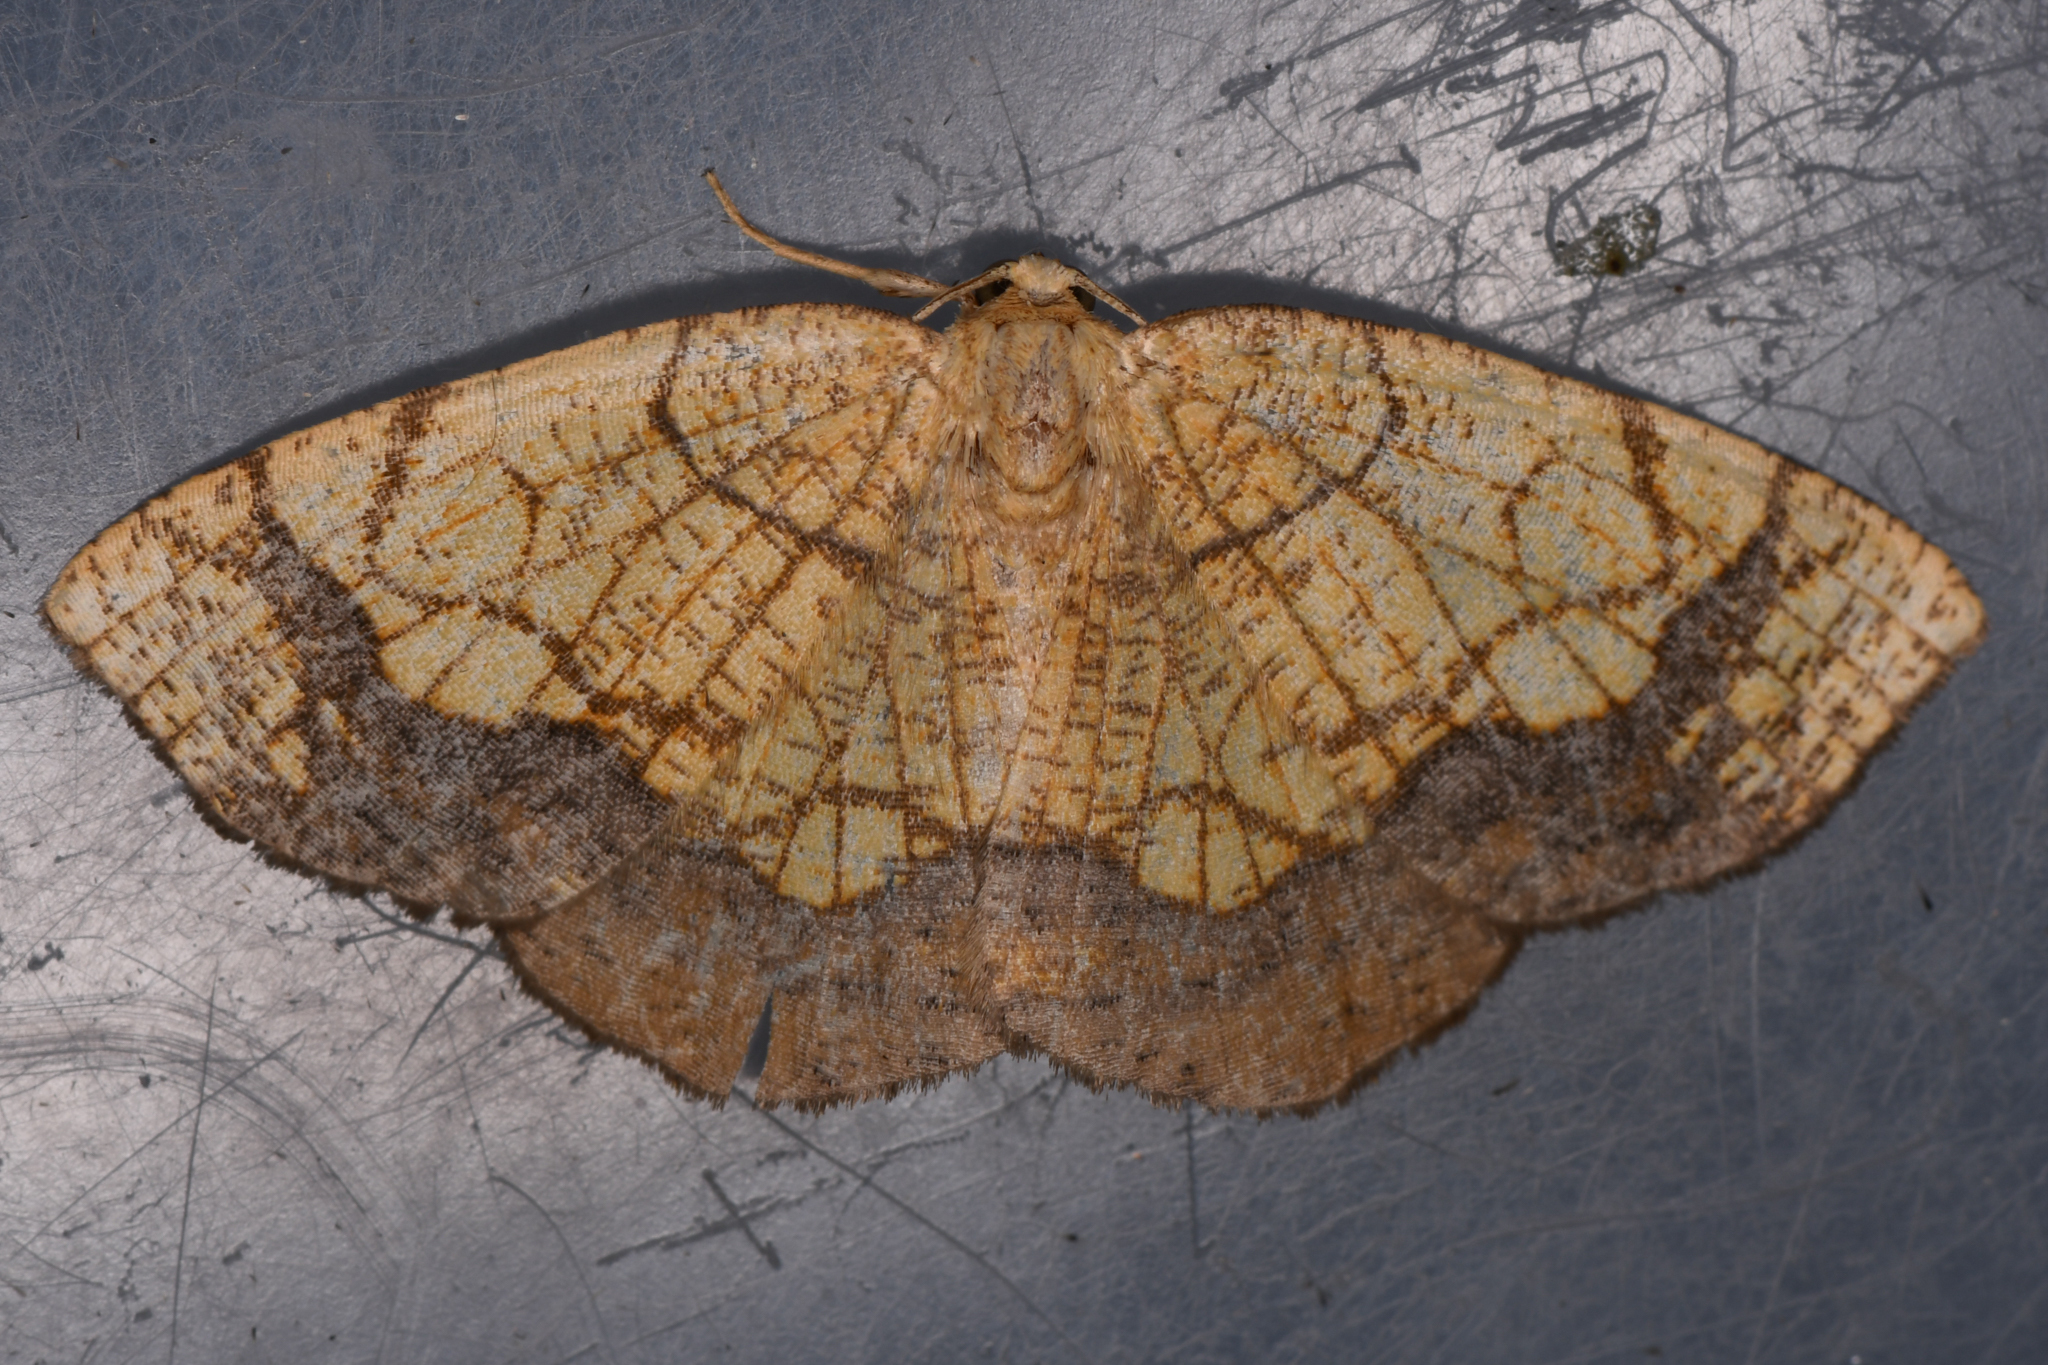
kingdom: Animalia
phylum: Arthropoda
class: Insecta
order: Lepidoptera
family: Geometridae
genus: Nematocampa
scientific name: Nematocampa resistaria
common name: Horned spanworm moth
